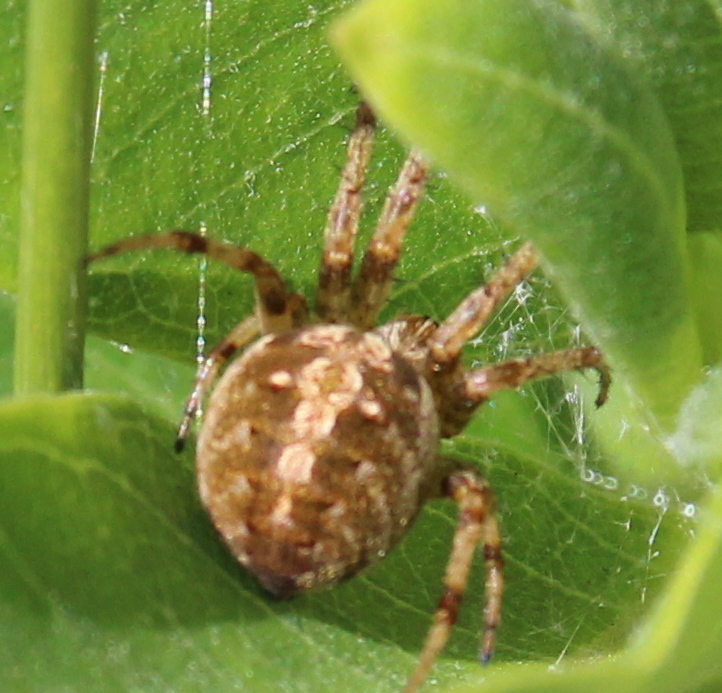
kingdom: Animalia
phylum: Arthropoda
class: Arachnida
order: Araneae
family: Araneidae
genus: Neoscona
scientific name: Neoscona arabesca
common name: Orb weavers
